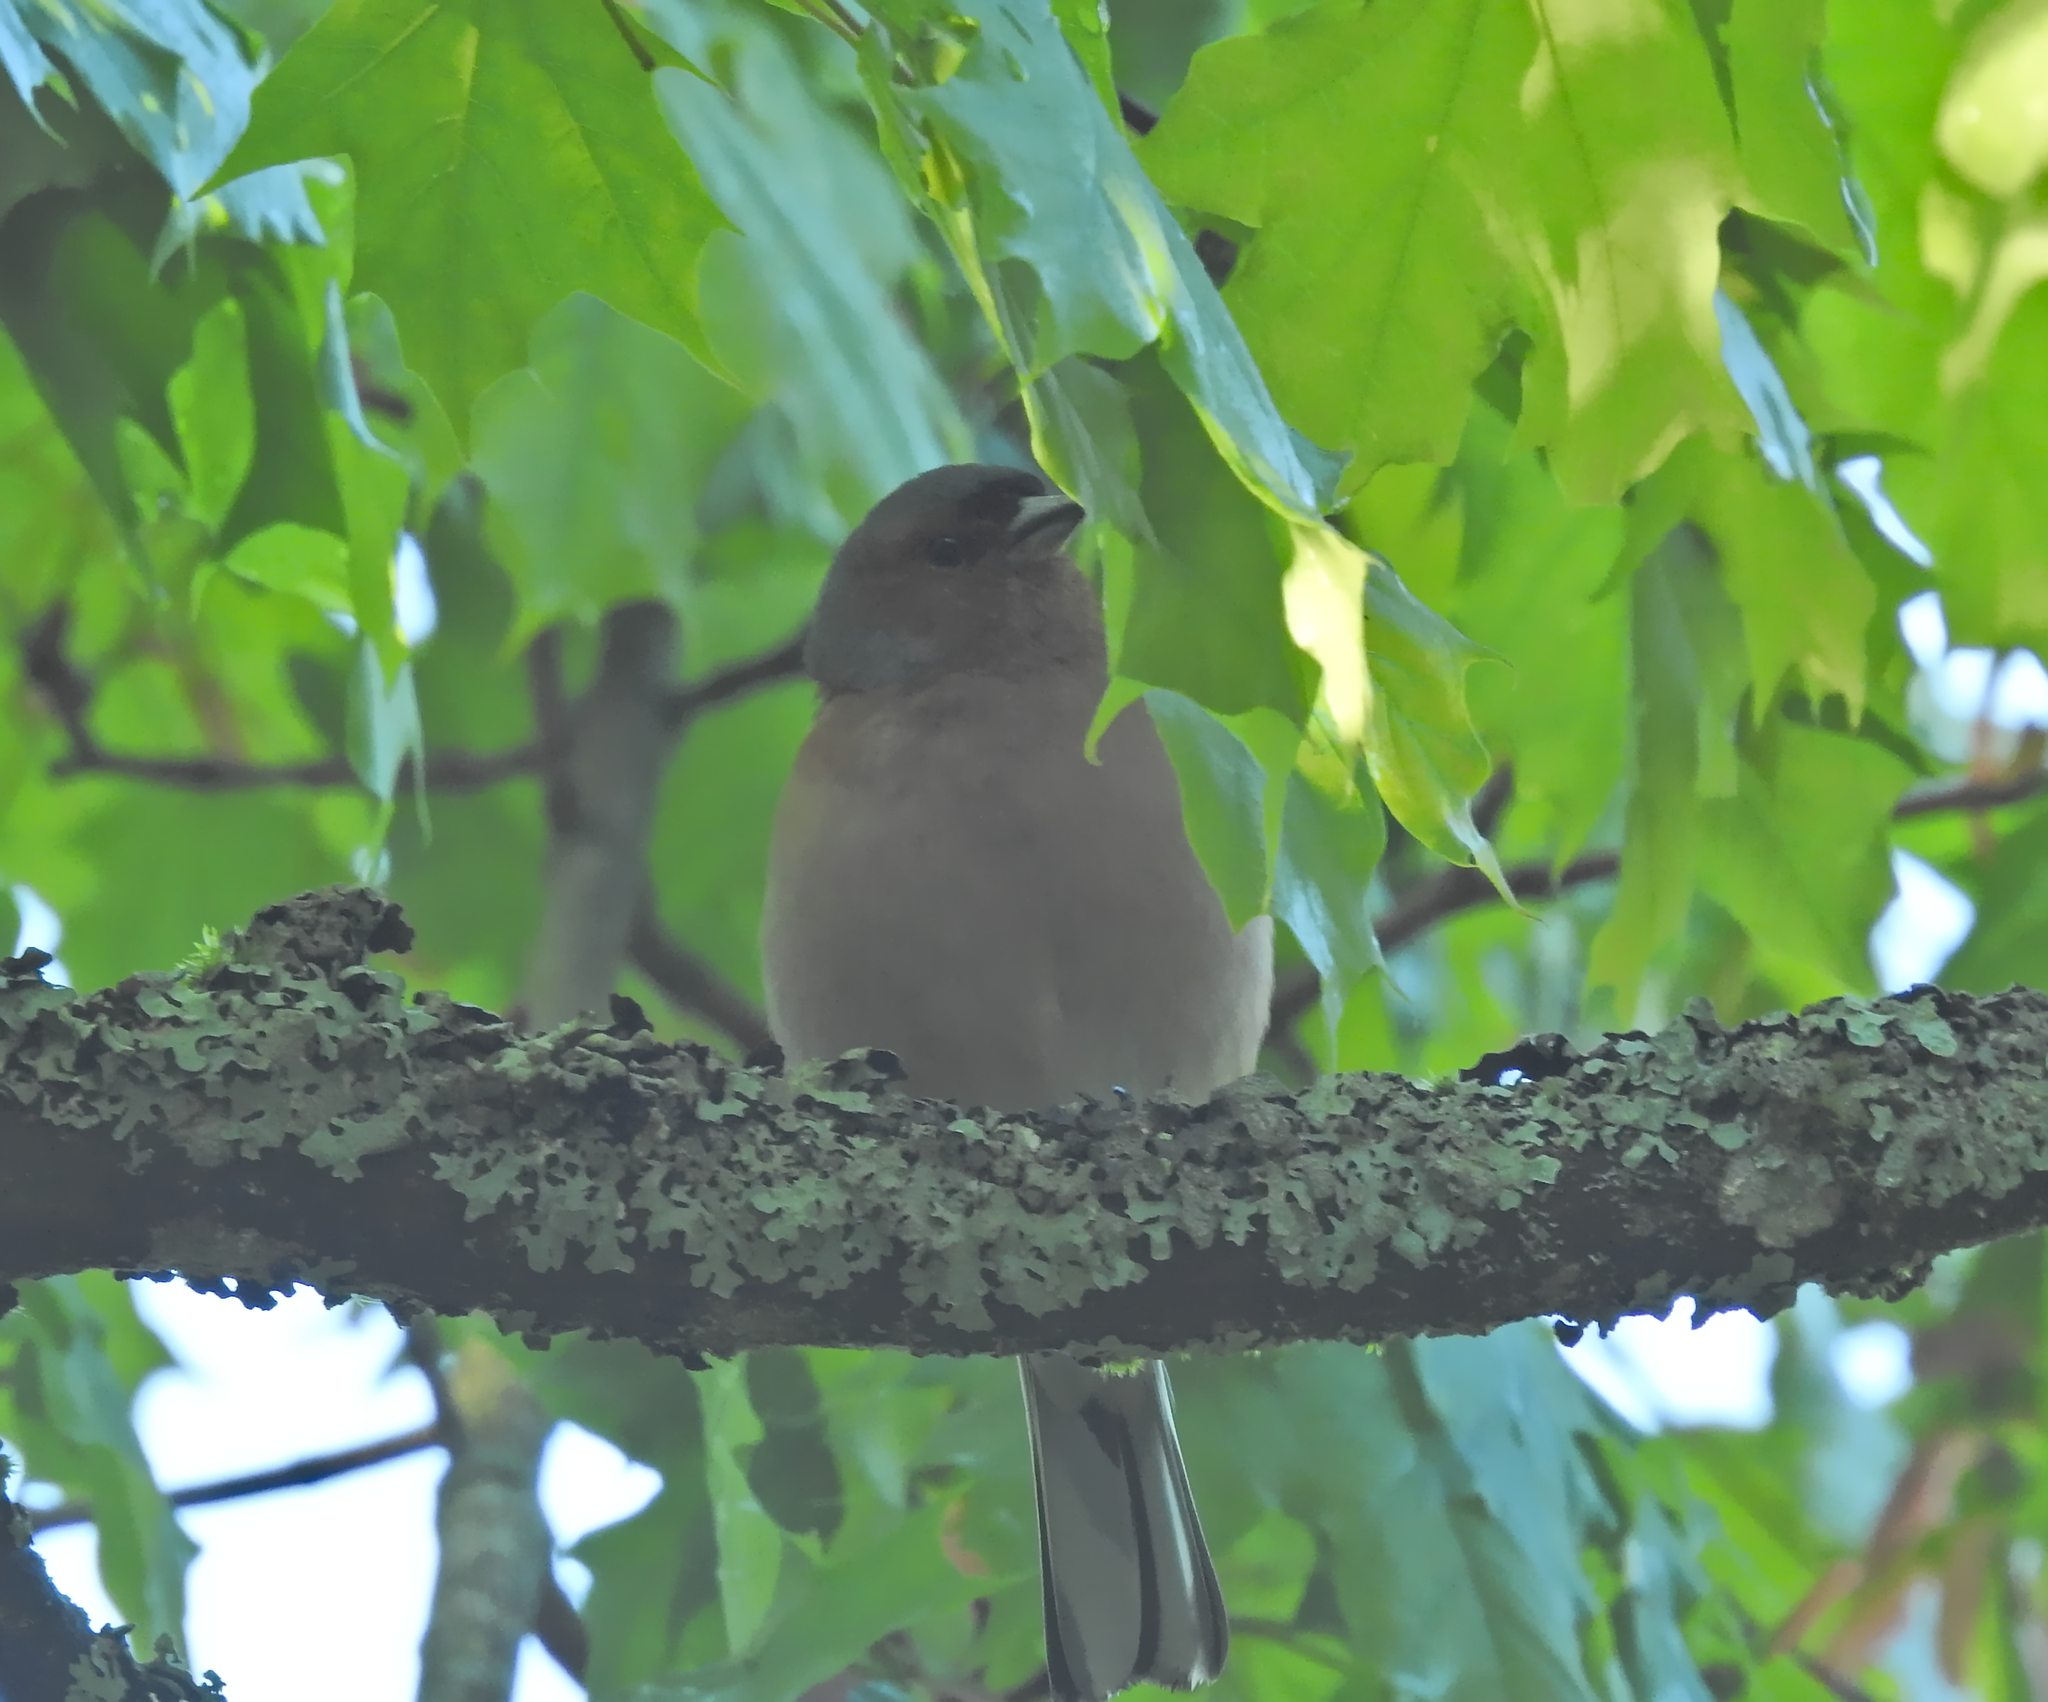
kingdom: Animalia
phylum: Chordata
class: Aves
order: Passeriformes
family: Fringillidae
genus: Fringilla
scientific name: Fringilla coelebs
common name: Common chaffinch
